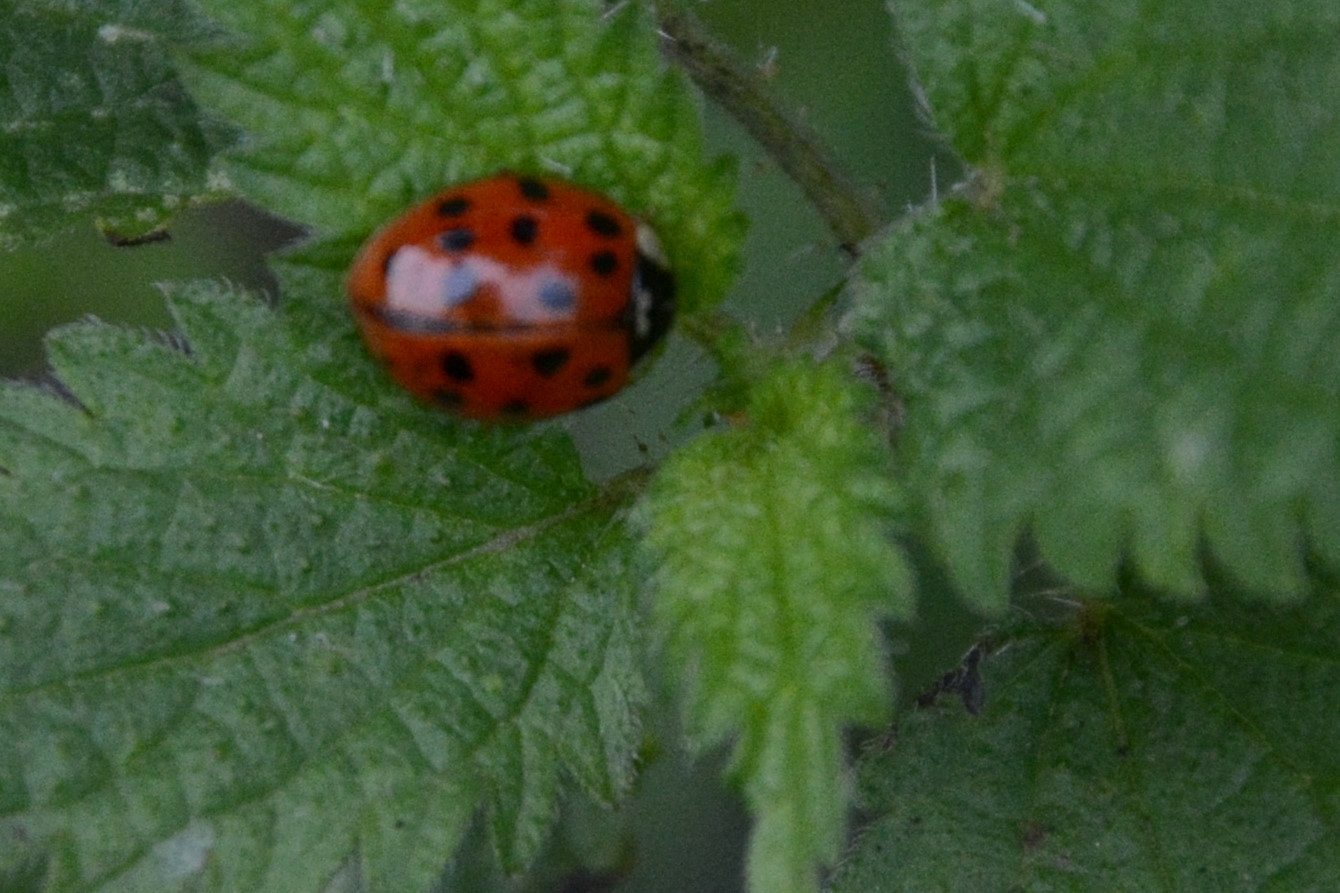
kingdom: Animalia
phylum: Arthropoda
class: Insecta
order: Coleoptera
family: Coccinellidae
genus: Harmonia
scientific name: Harmonia axyridis
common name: Harlequin ladybird
